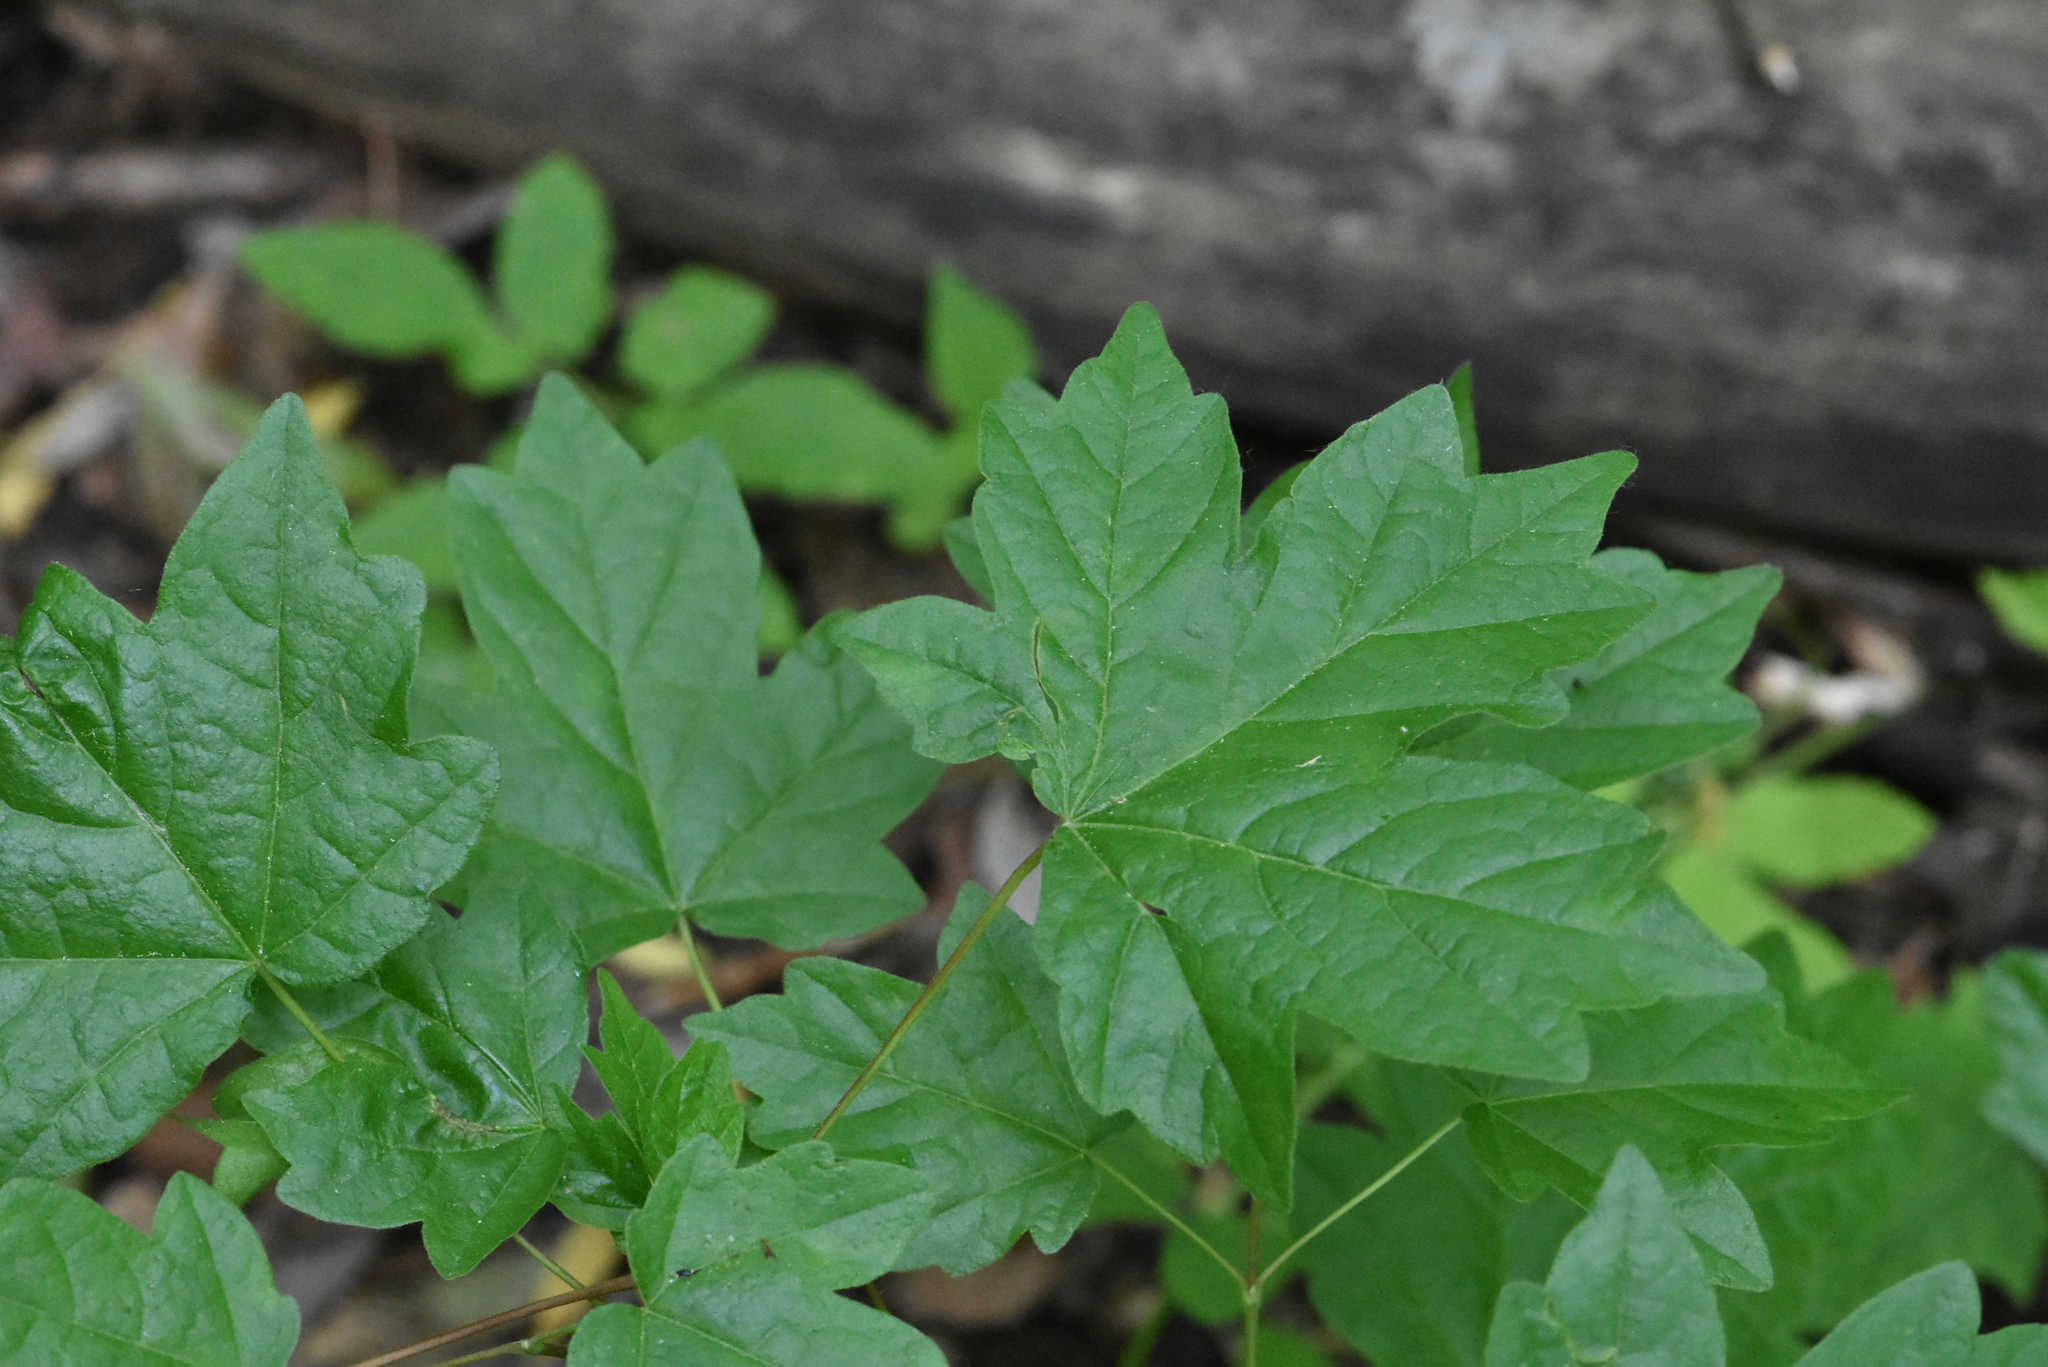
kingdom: Plantae
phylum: Tracheophyta
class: Magnoliopsida
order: Sapindales
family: Sapindaceae
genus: Acer
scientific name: Acer campestre
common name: Field maple
